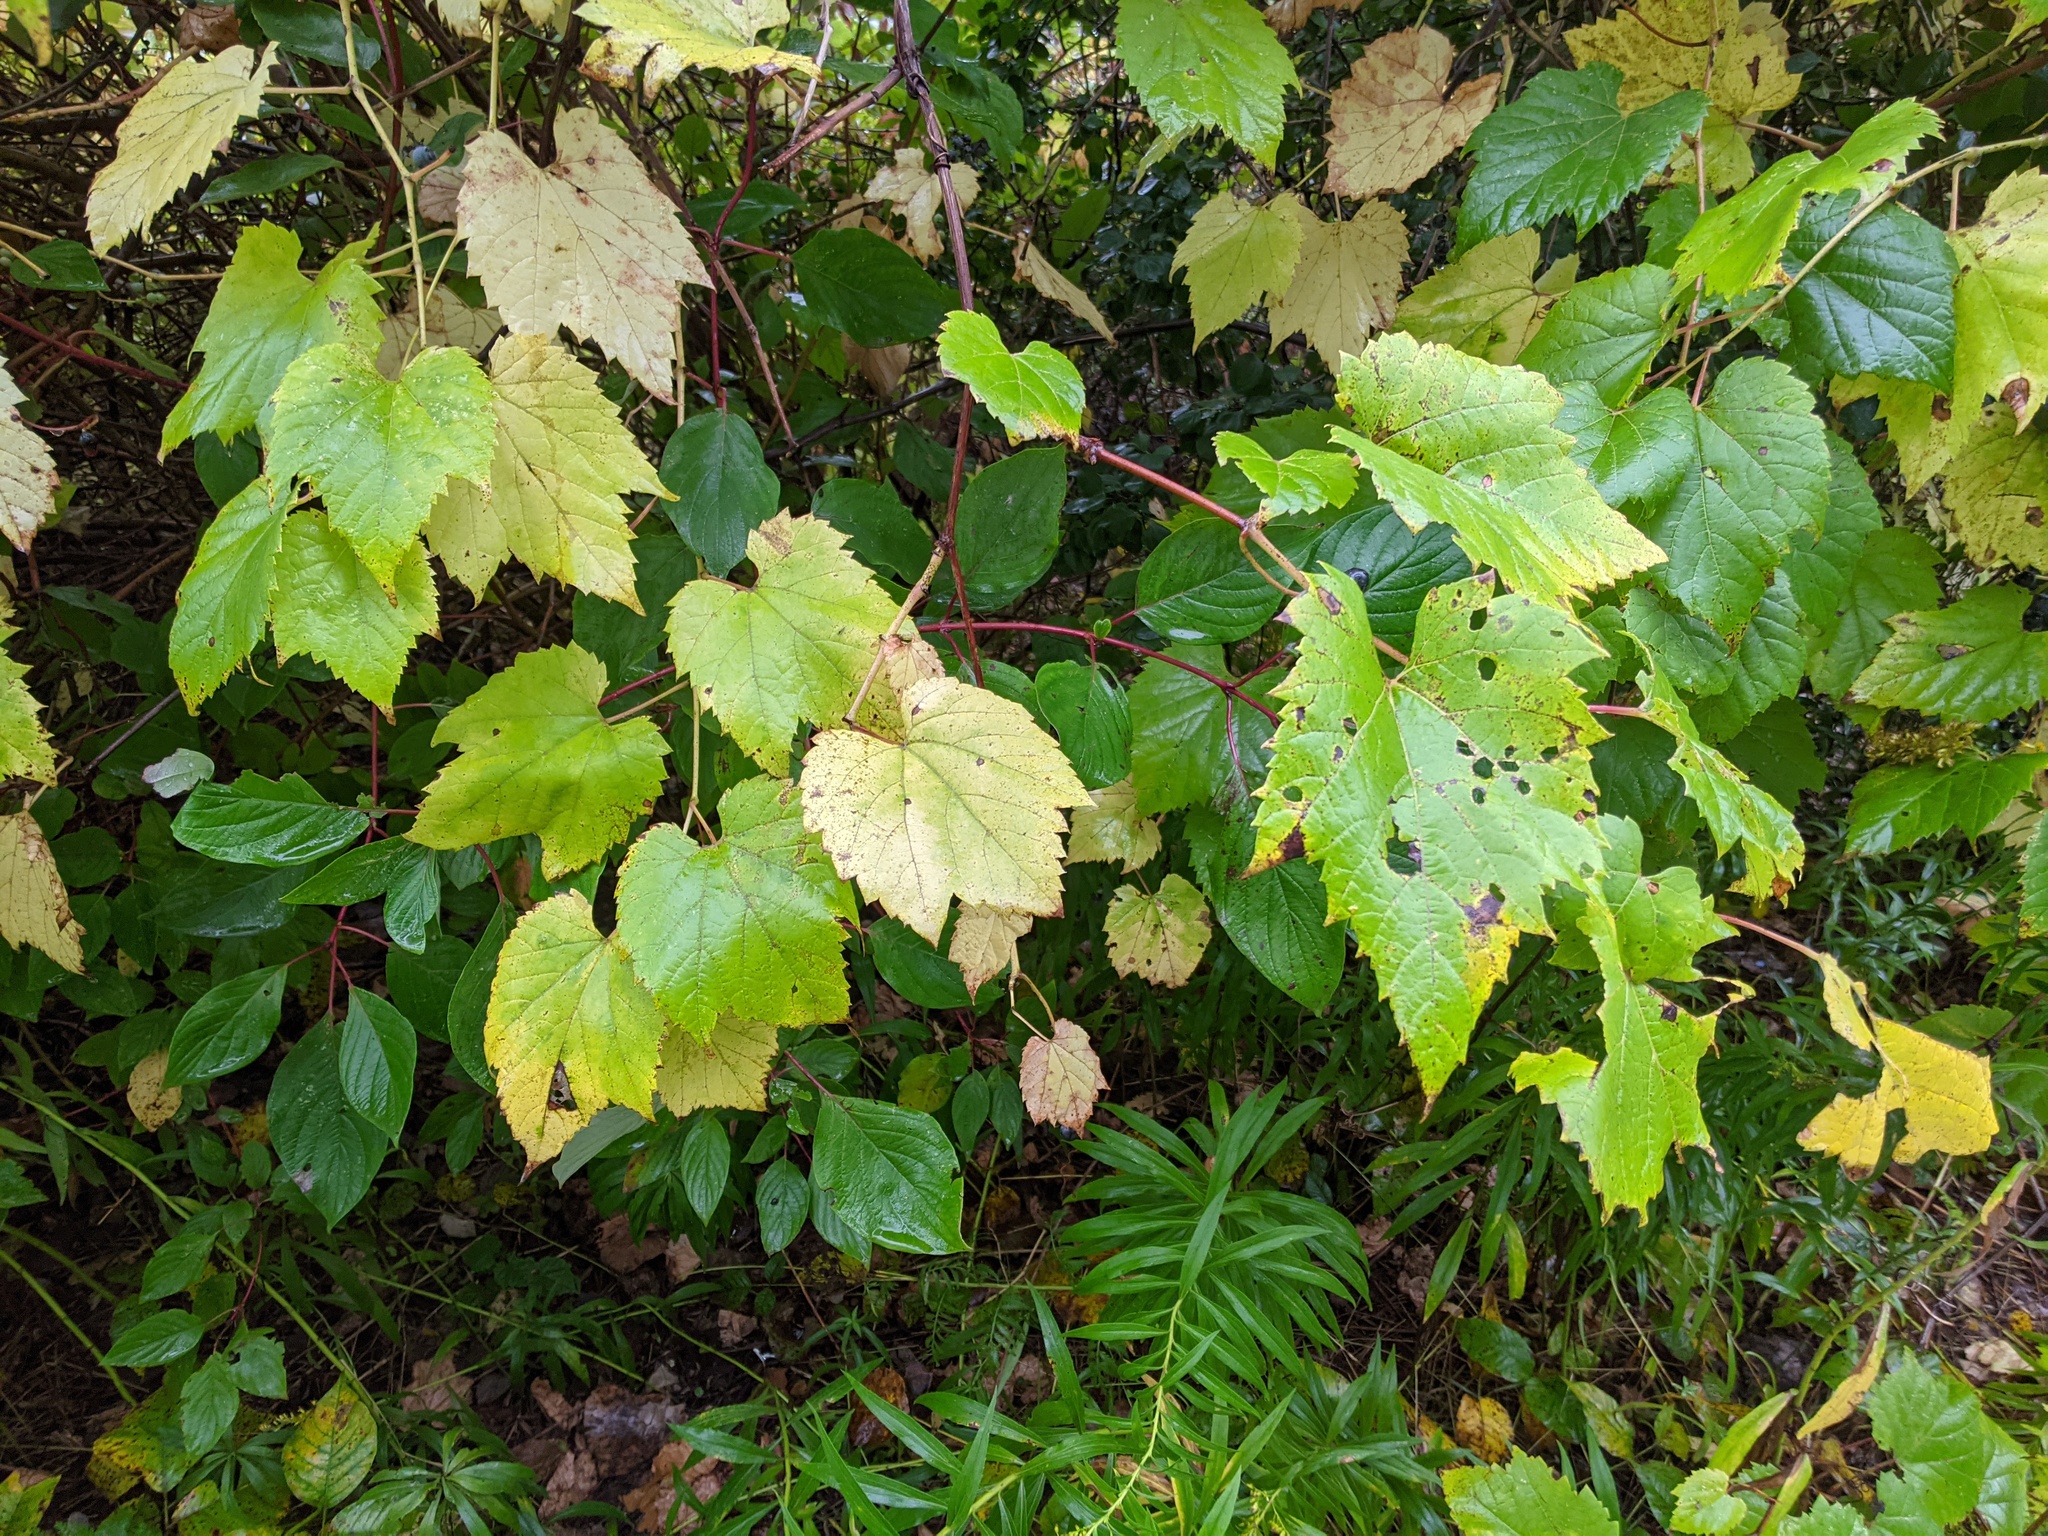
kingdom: Plantae
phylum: Tracheophyta
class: Magnoliopsida
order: Vitales
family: Vitaceae
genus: Vitis
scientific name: Vitis riparia
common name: Frost grape
